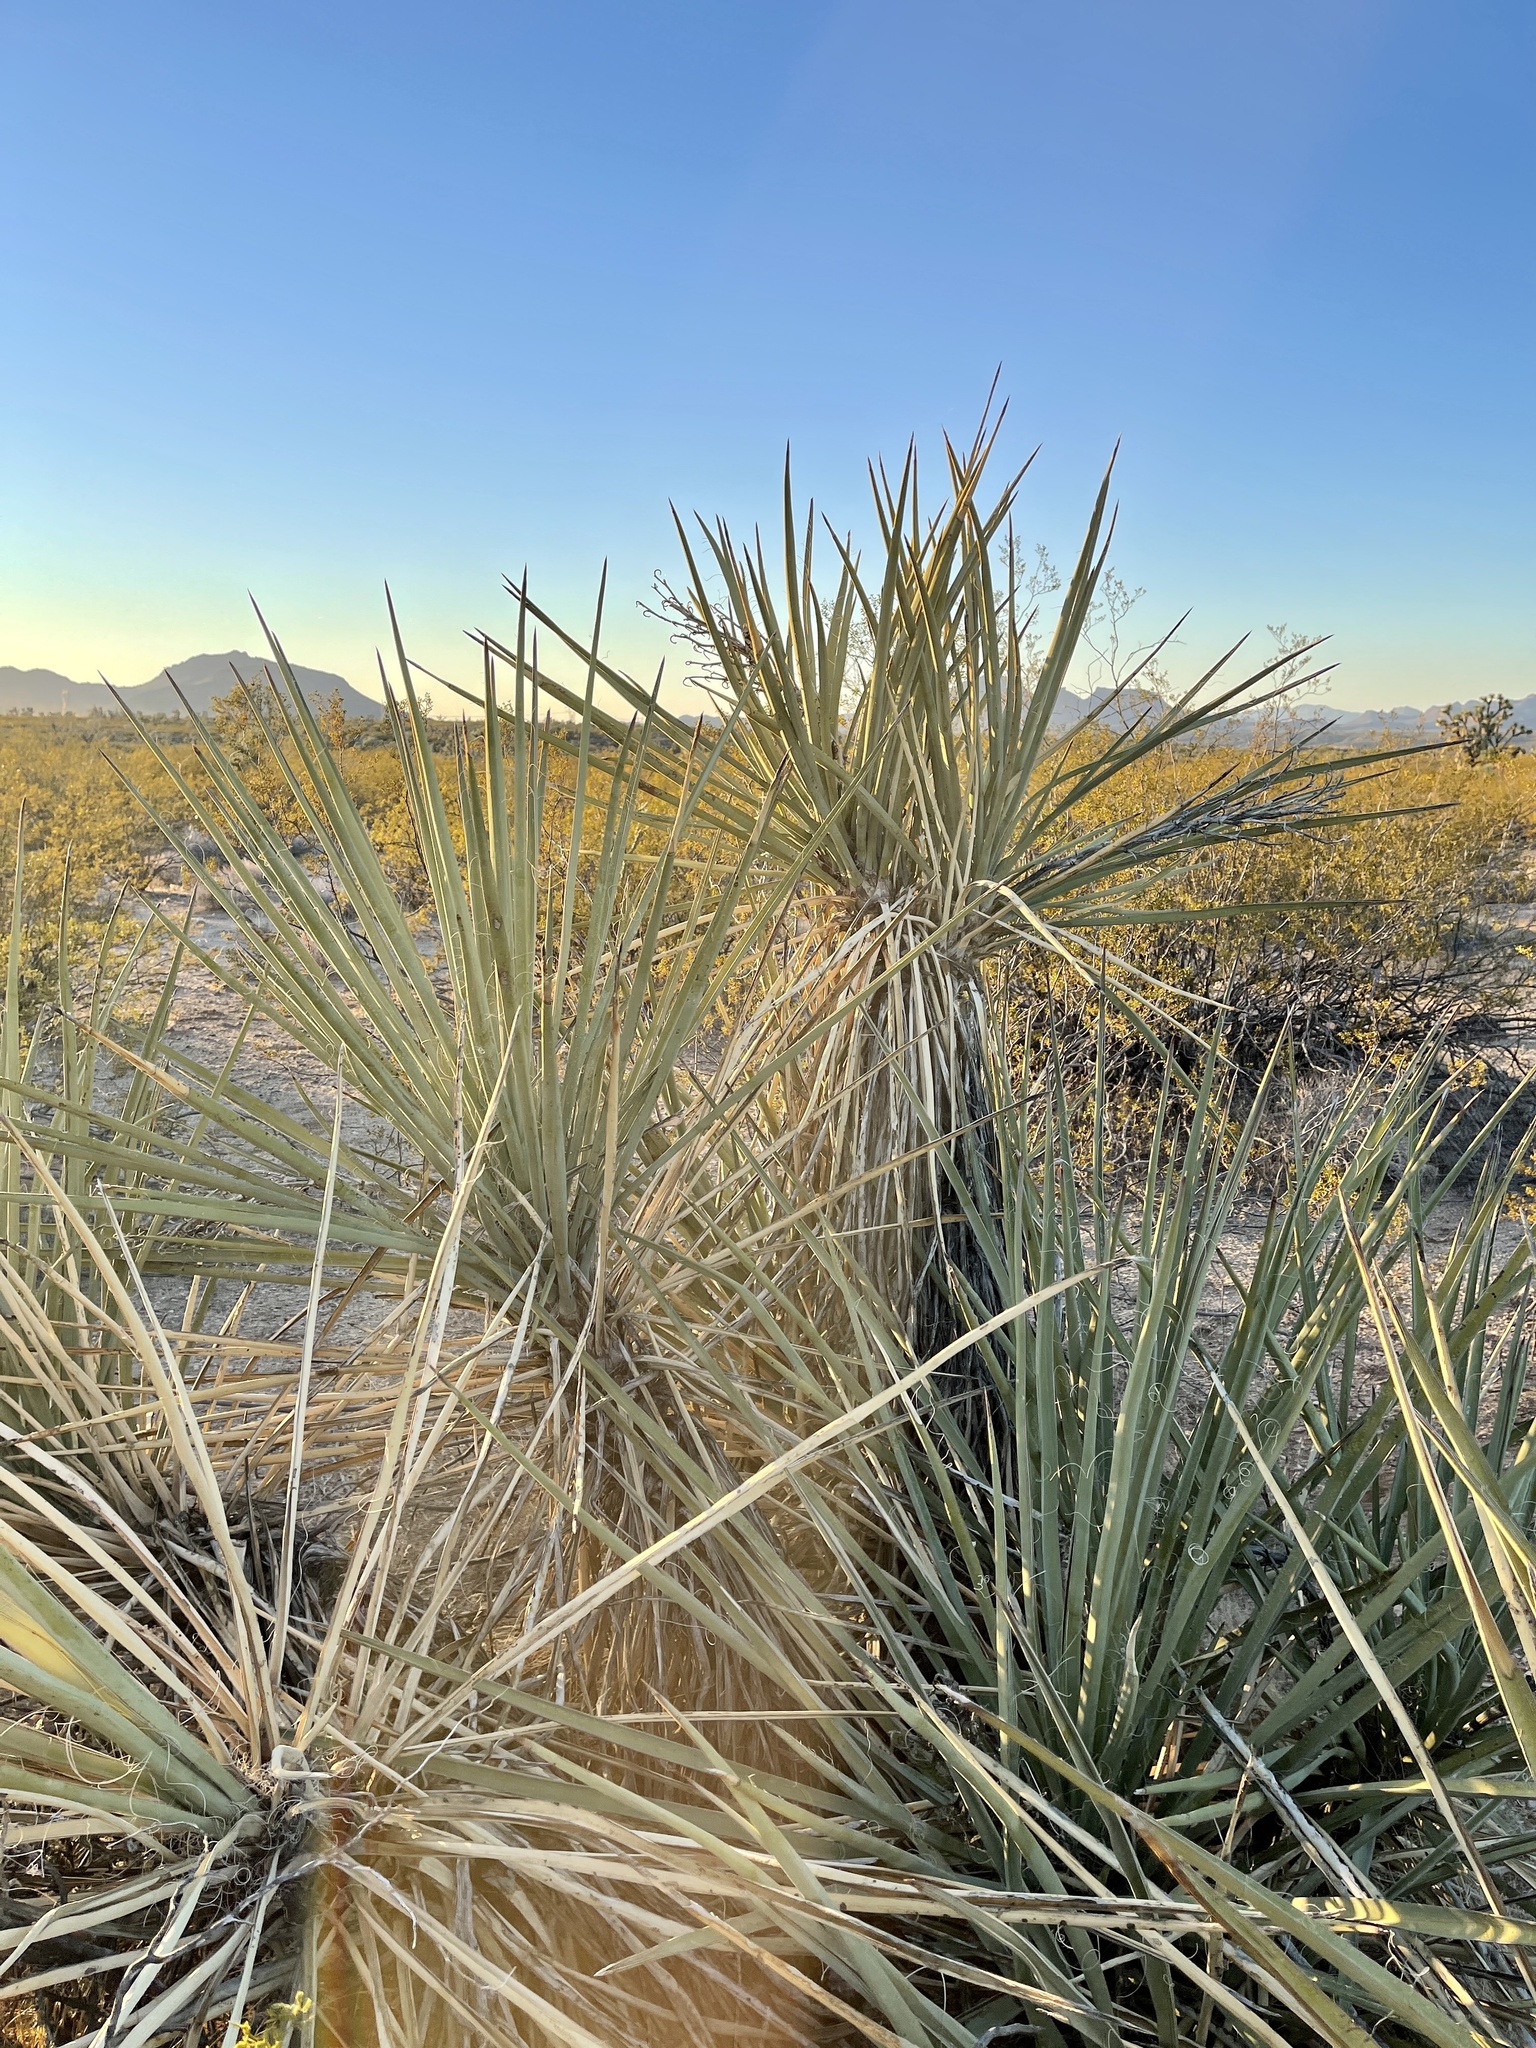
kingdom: Plantae
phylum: Tracheophyta
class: Liliopsida
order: Asparagales
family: Asparagaceae
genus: Yucca
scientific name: Yucca baccata
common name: Banana yucca
